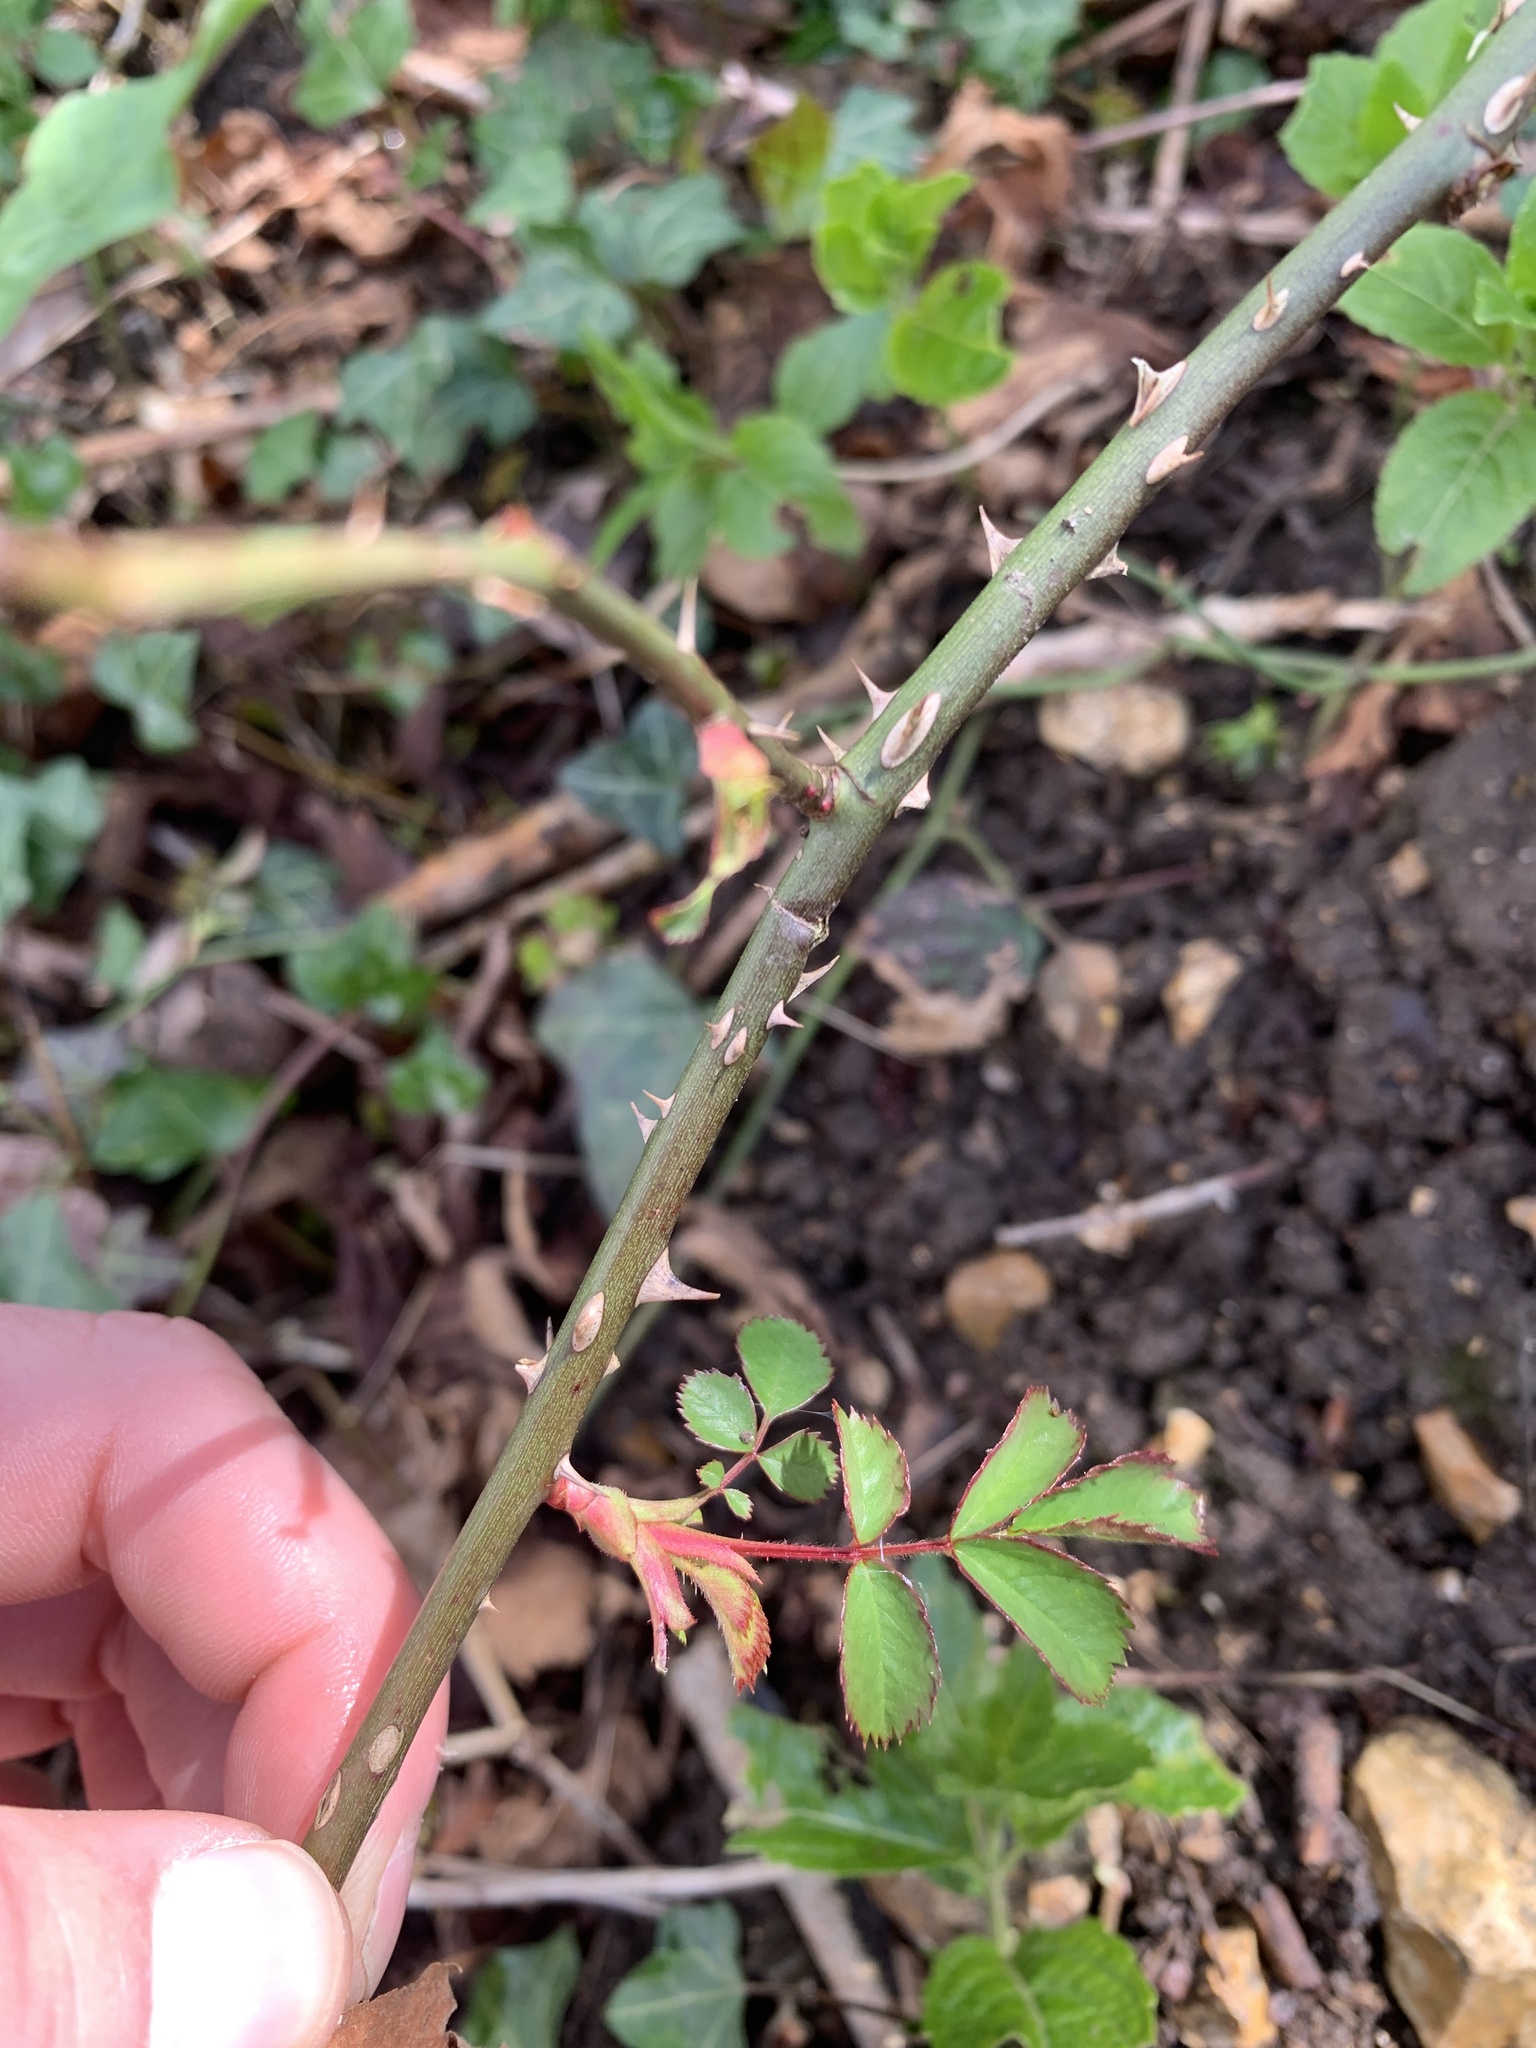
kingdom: Plantae
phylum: Tracheophyta
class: Magnoliopsida
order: Rosales
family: Rosaceae
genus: Rosa
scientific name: Rosa canina
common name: Dog rose
